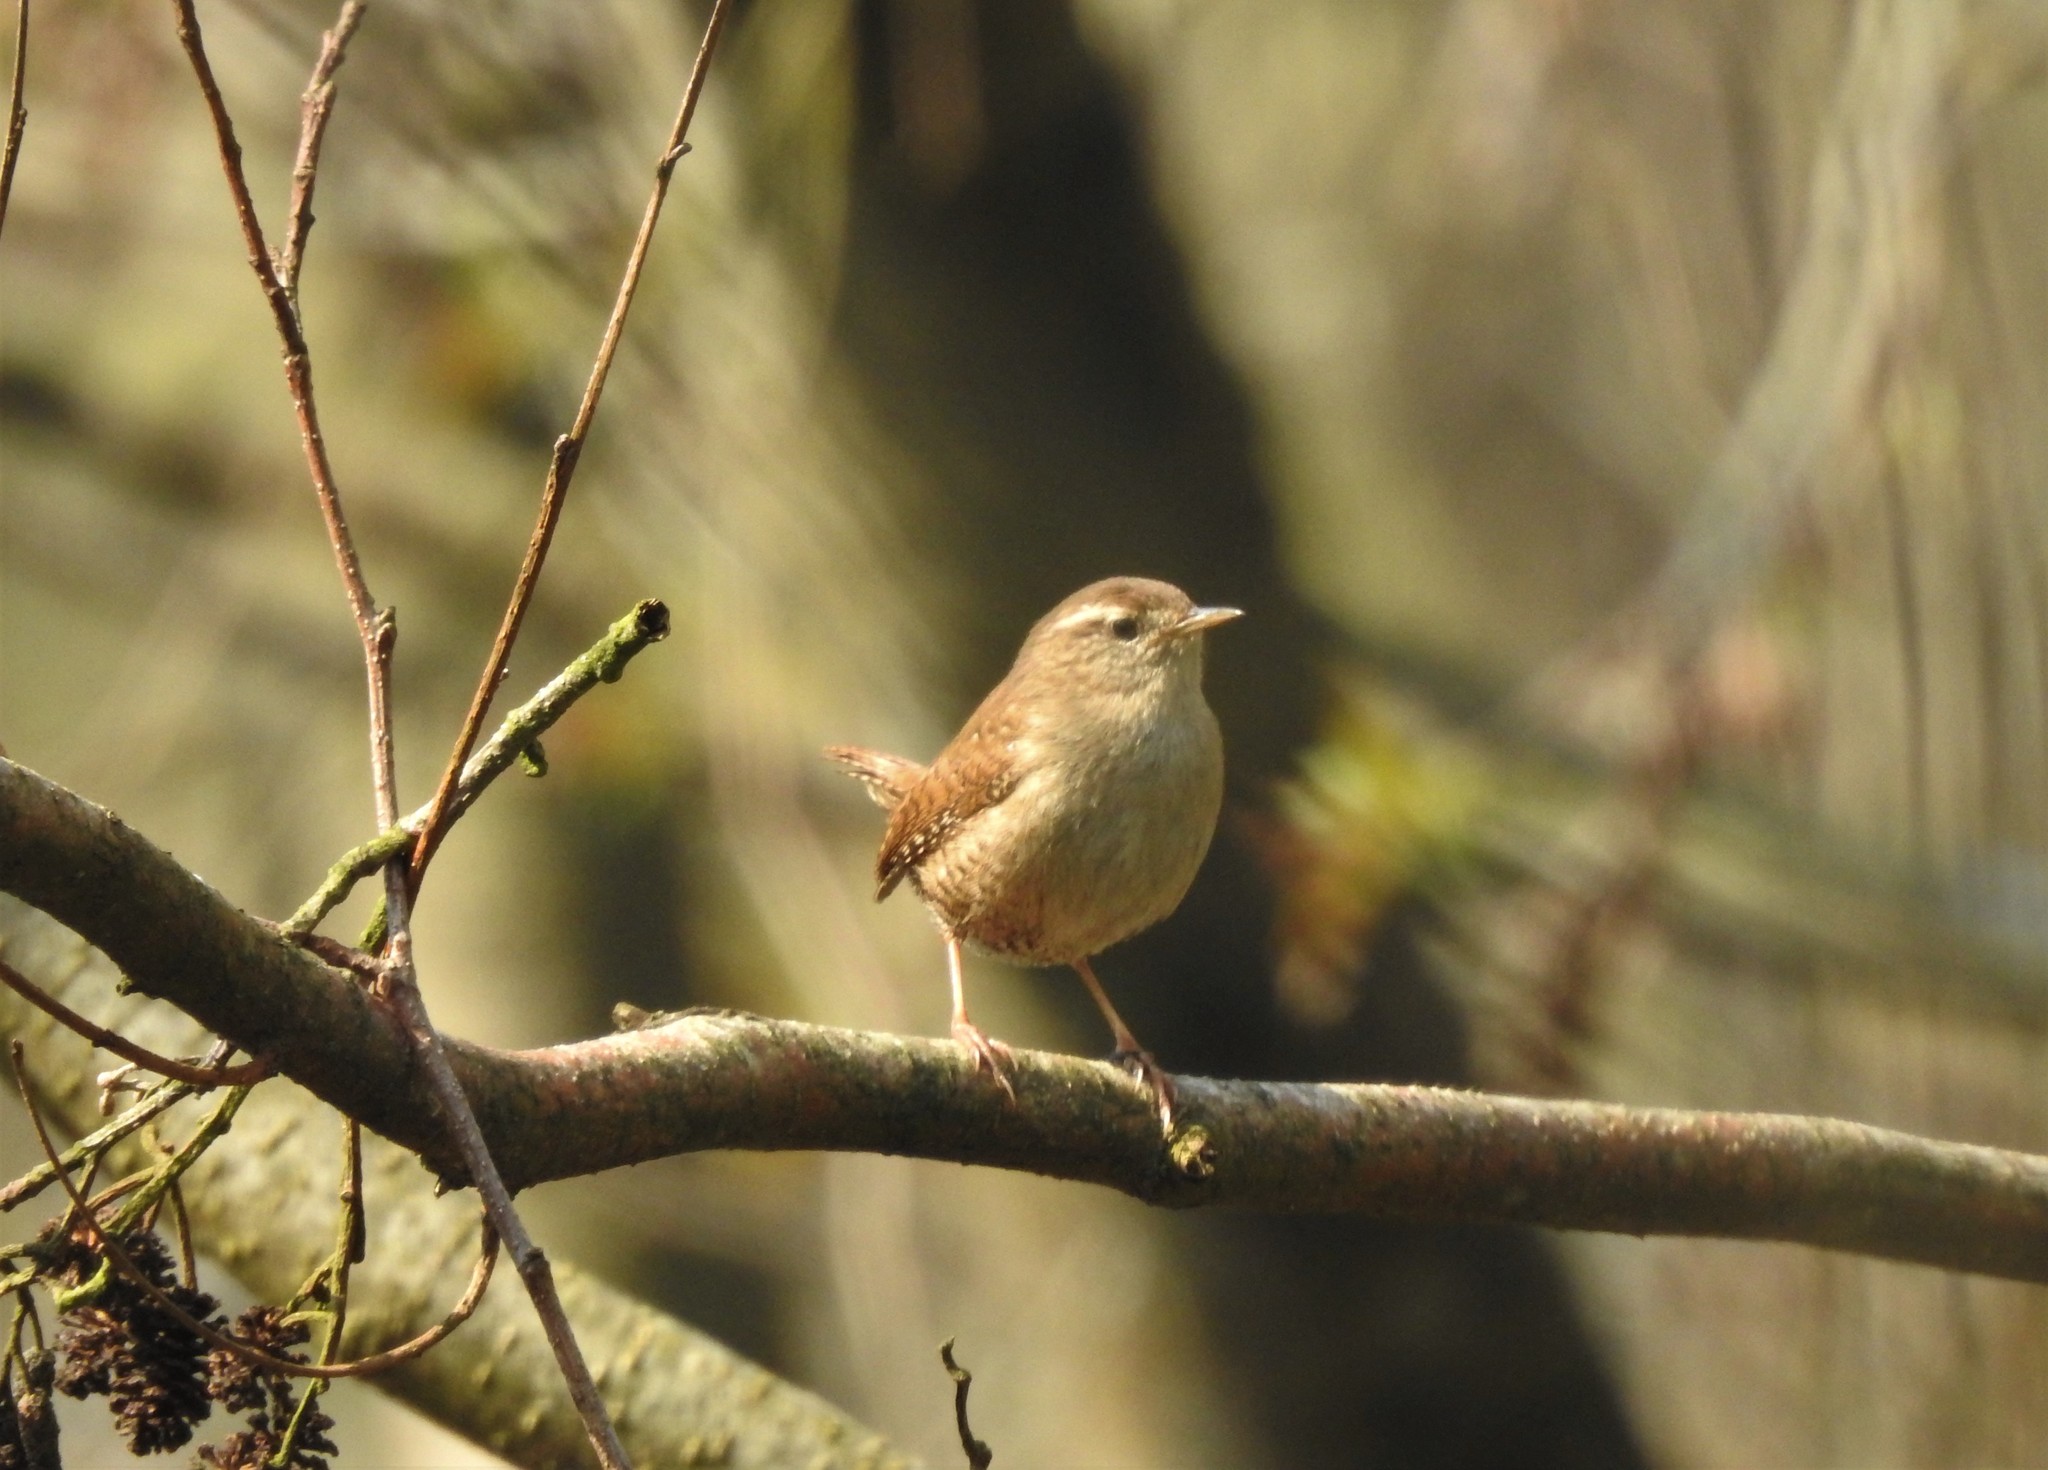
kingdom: Animalia
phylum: Chordata
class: Aves
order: Passeriformes
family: Troglodytidae
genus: Troglodytes
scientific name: Troglodytes troglodytes
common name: Eurasian wren
